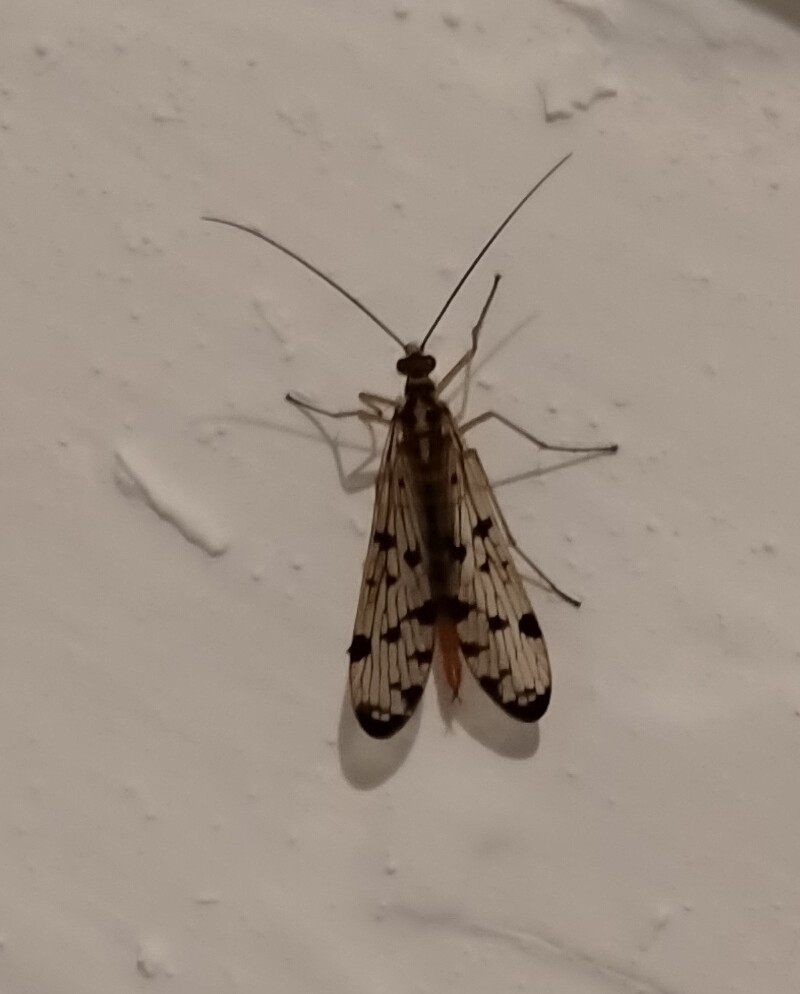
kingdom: Animalia
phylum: Arthropoda
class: Insecta
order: Mecoptera
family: Panorpidae
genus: Panorpa
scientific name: Panorpa
